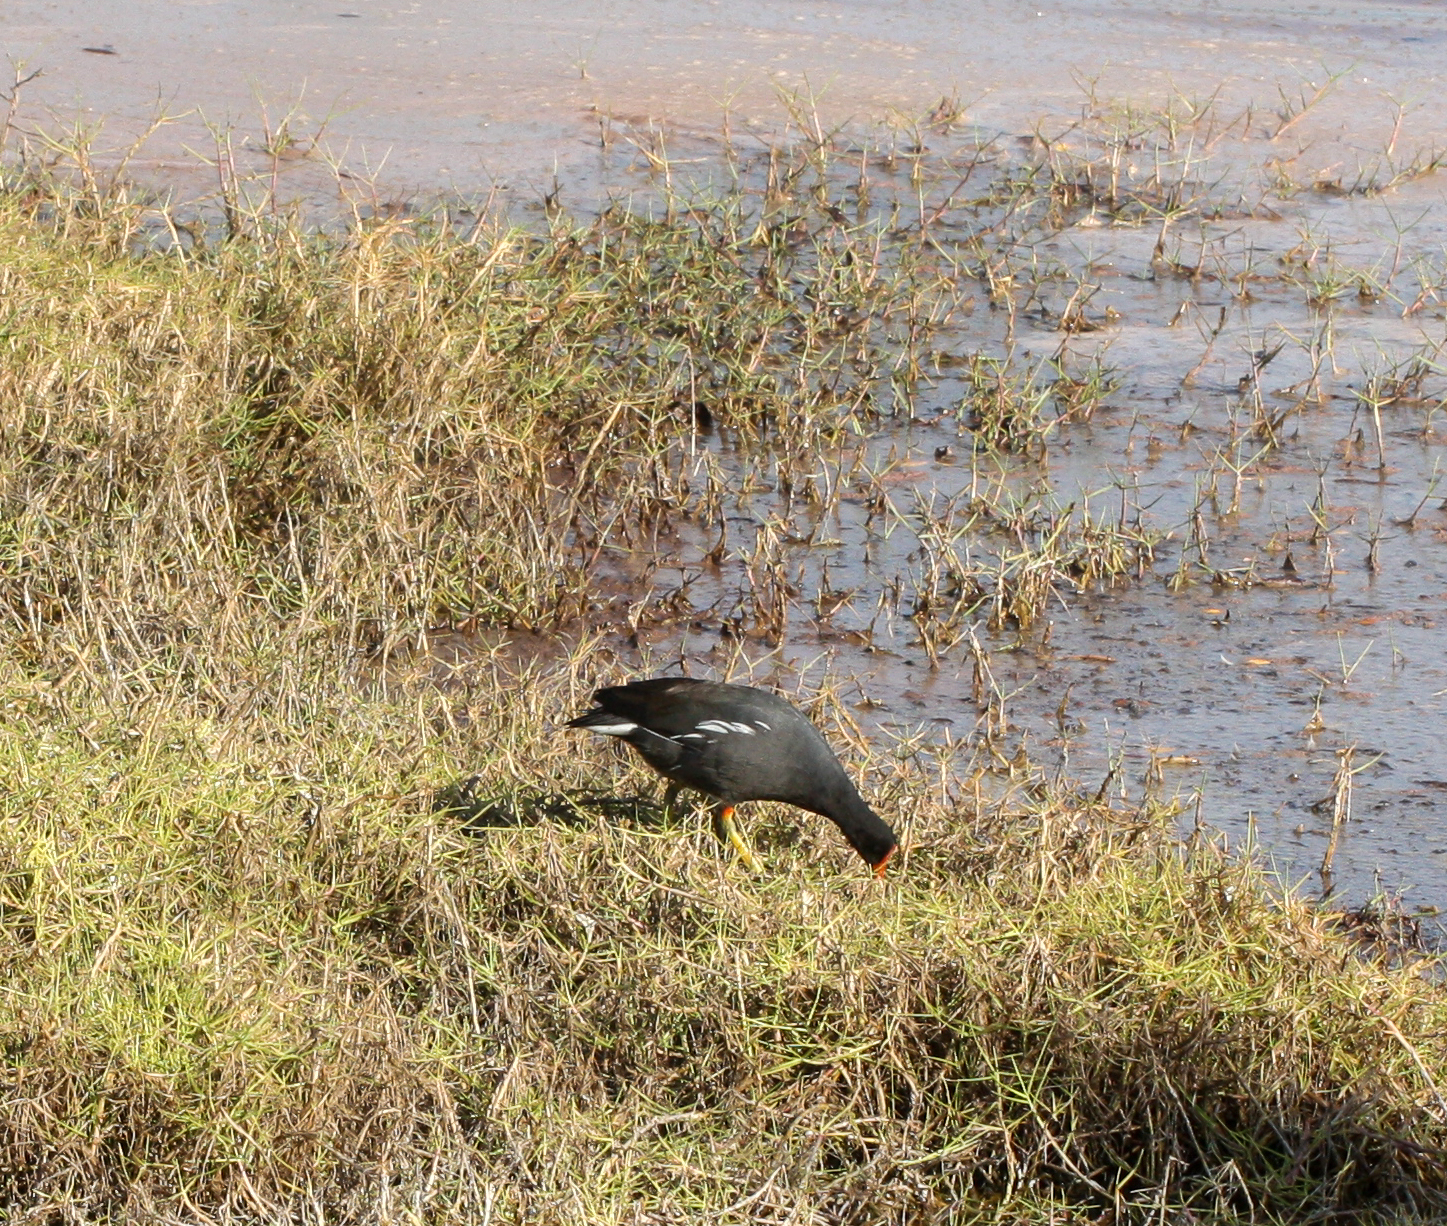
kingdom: Animalia
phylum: Chordata
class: Aves
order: Gruiformes
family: Rallidae
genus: Gallinula
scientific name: Gallinula chloropus
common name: Common moorhen
